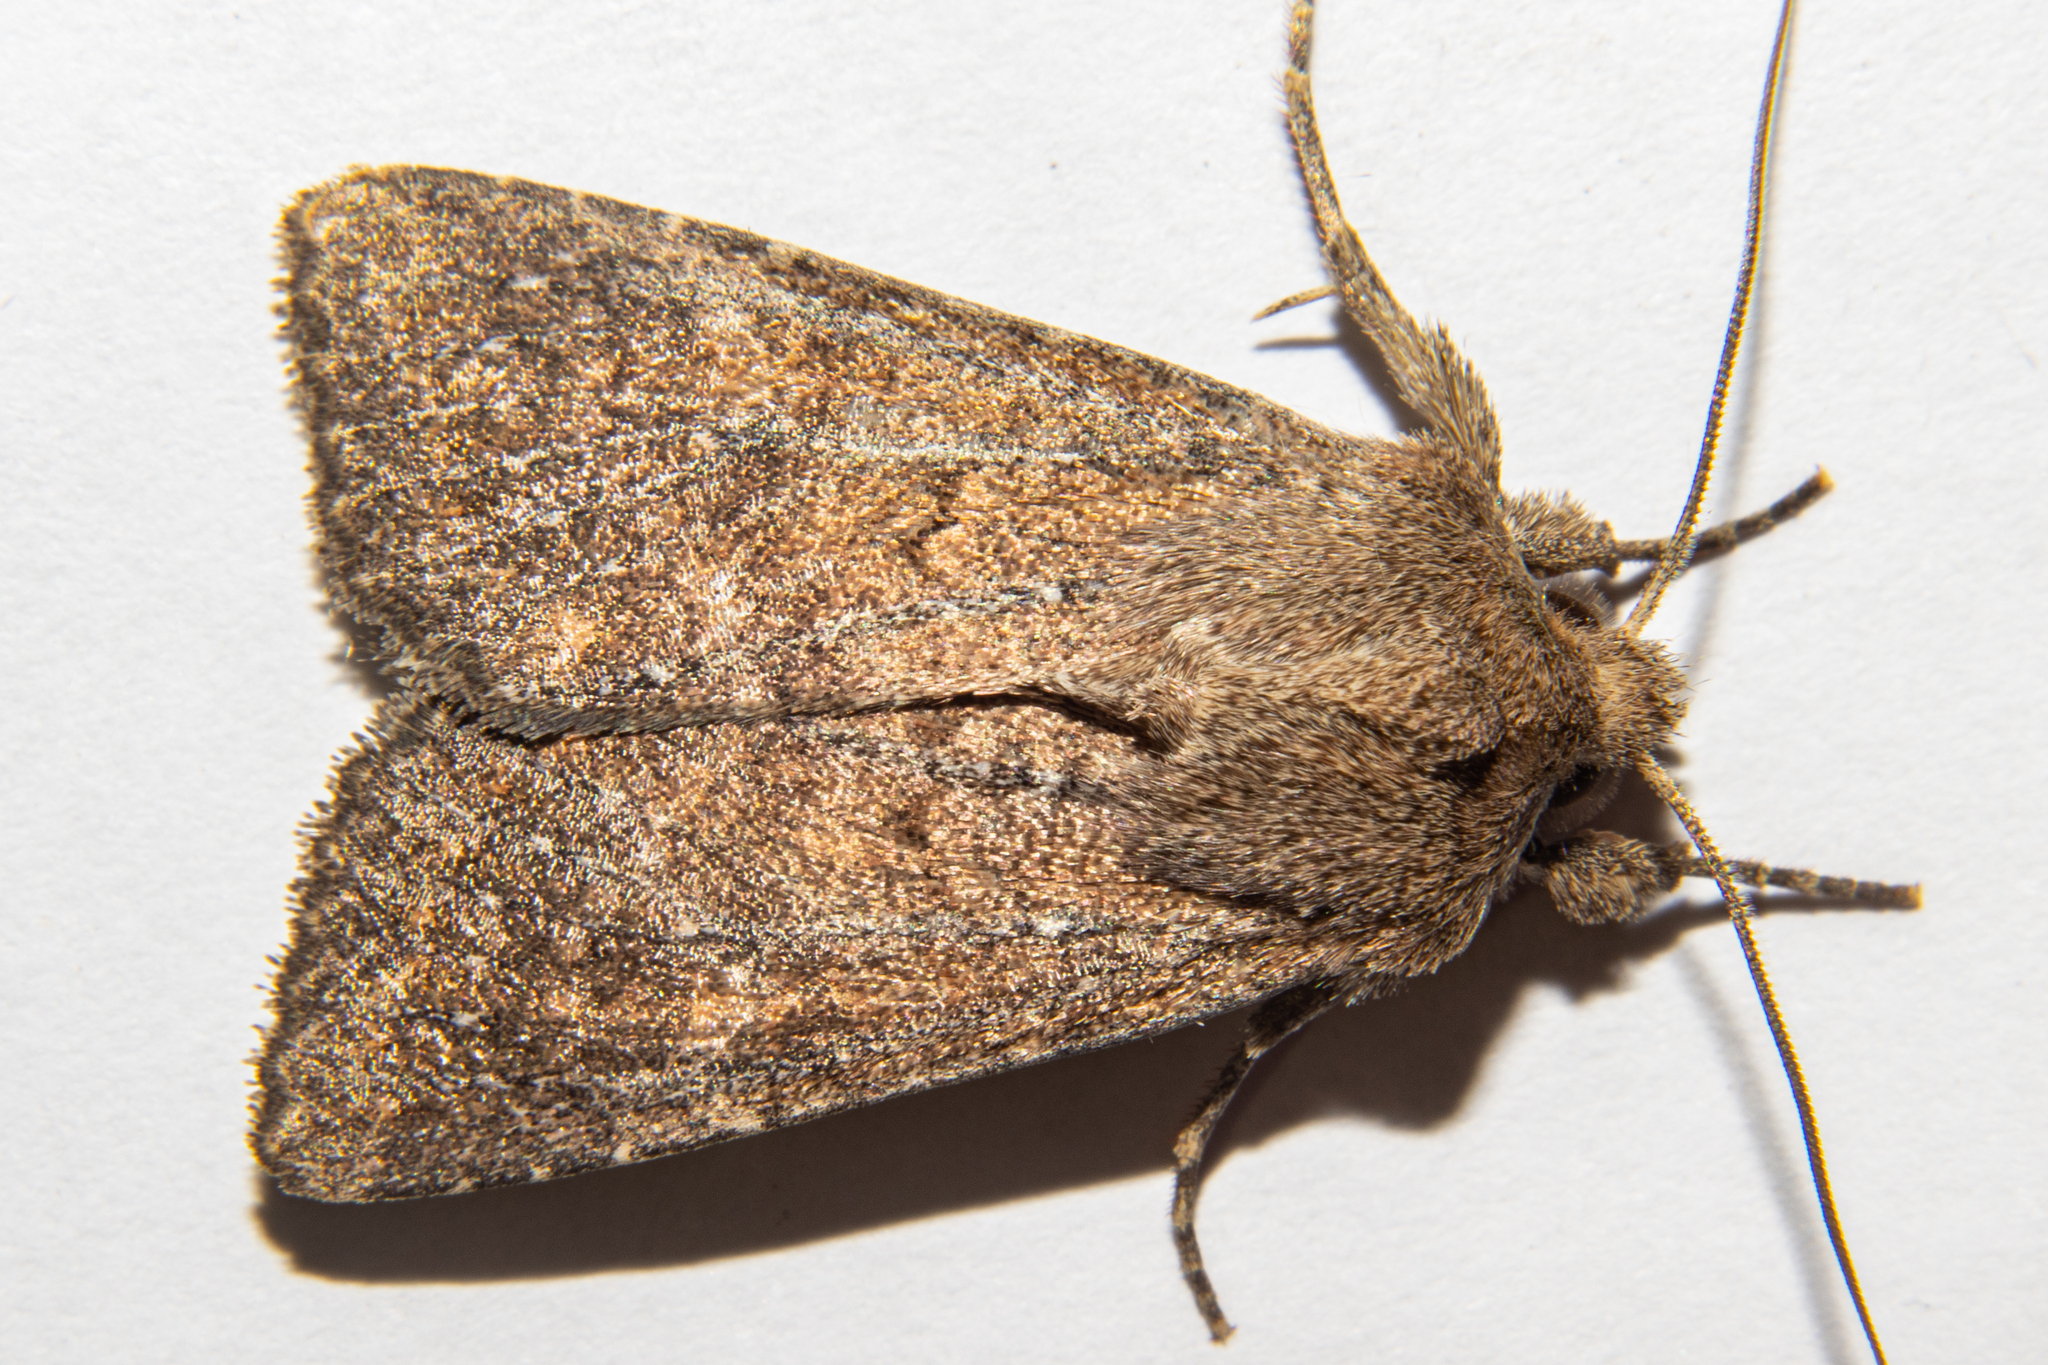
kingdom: Animalia
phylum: Arthropoda
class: Insecta
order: Lepidoptera
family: Noctuidae
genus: Physetica
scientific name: Physetica
